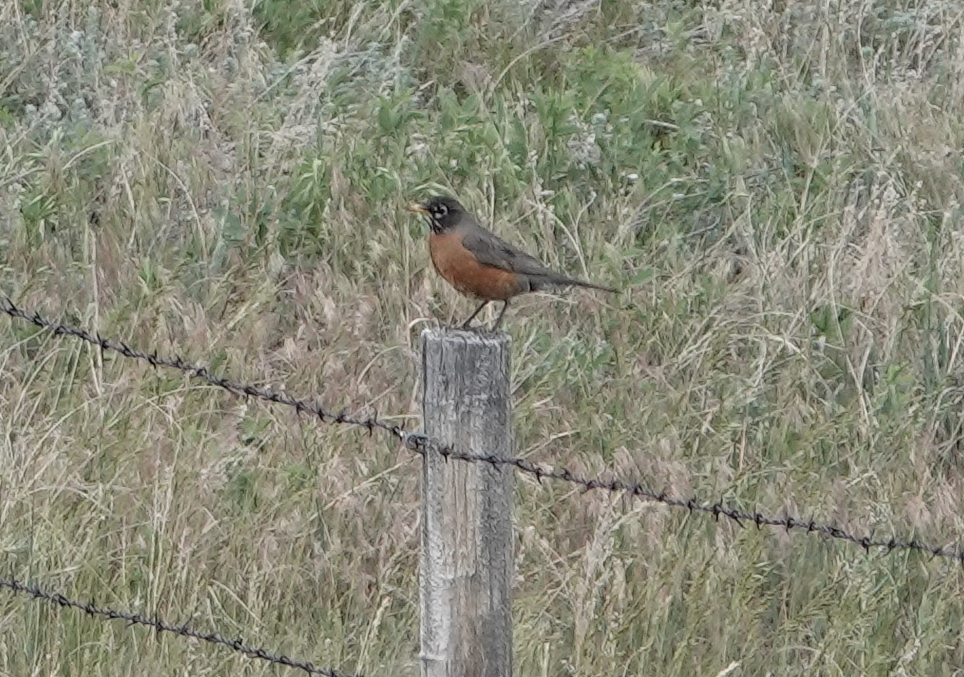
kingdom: Animalia
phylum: Chordata
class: Aves
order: Passeriformes
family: Turdidae
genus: Turdus
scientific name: Turdus migratorius
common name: American robin
